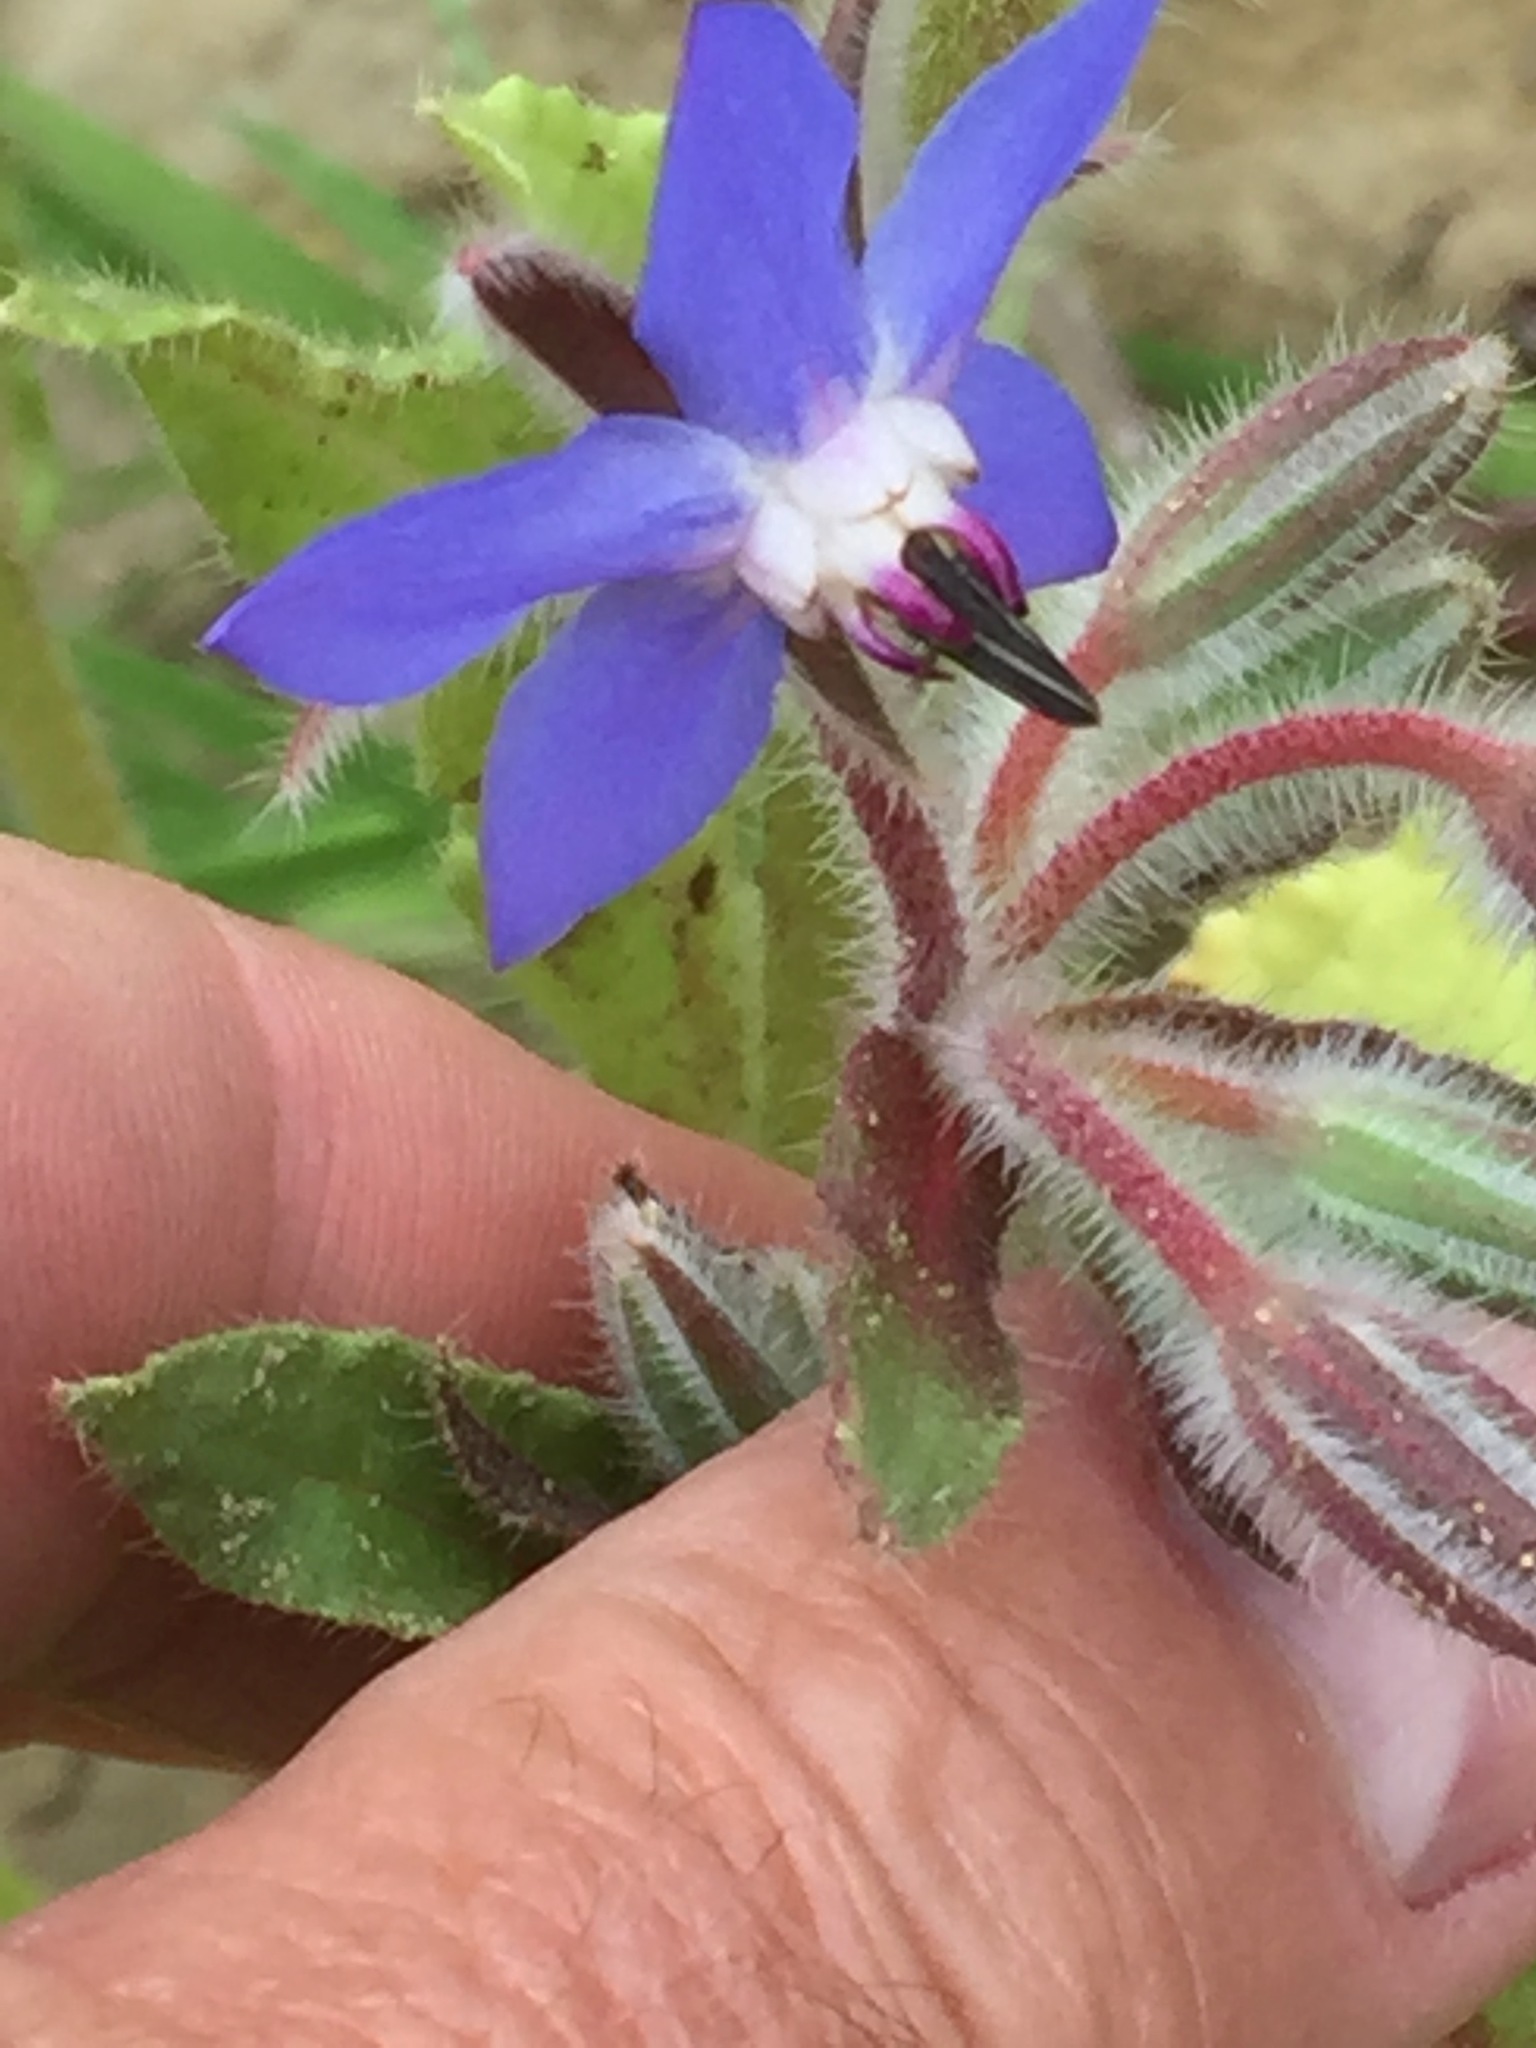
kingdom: Plantae
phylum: Tracheophyta
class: Magnoliopsida
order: Boraginales
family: Boraginaceae
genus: Borago
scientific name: Borago officinalis
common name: Borage
